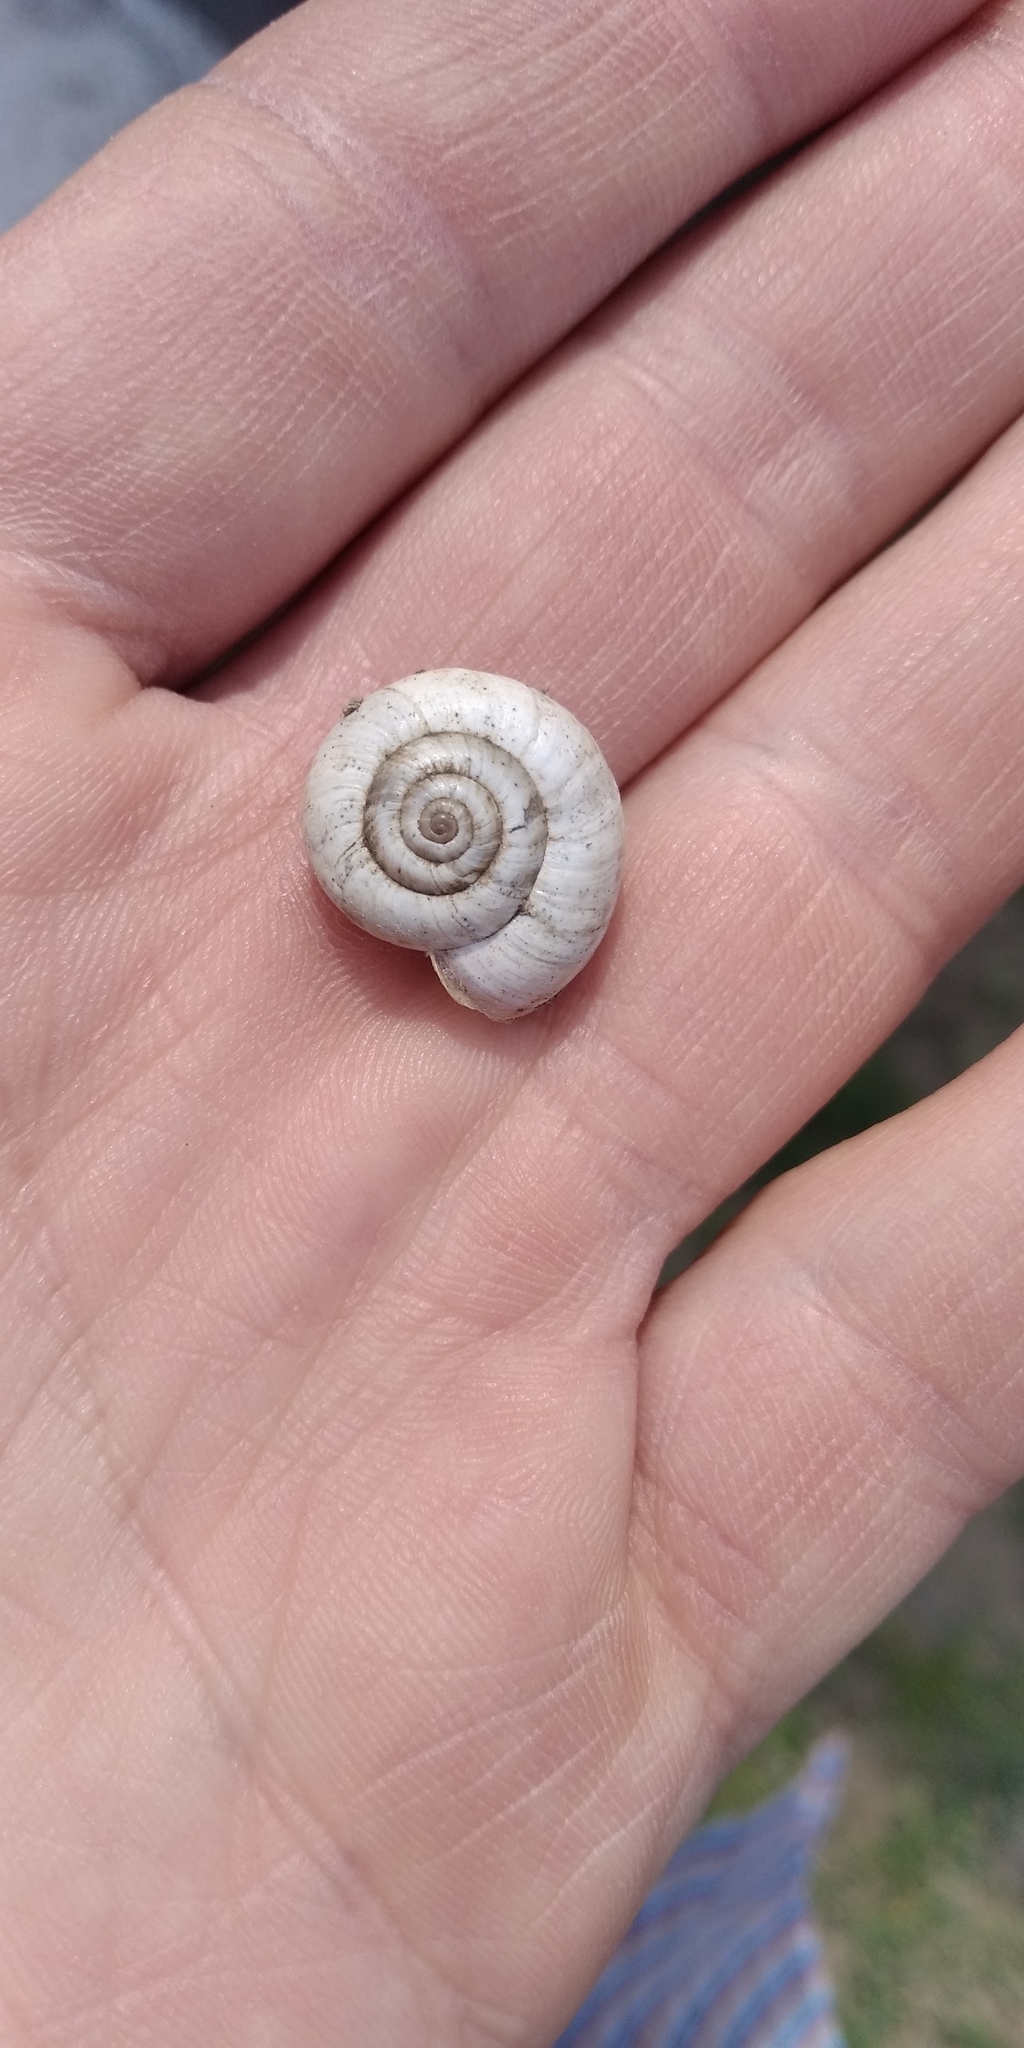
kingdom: Animalia
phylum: Mollusca
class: Gastropoda
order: Stylommatophora
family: Geomitridae
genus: Xeropicta
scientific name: Xeropicta derbentina
